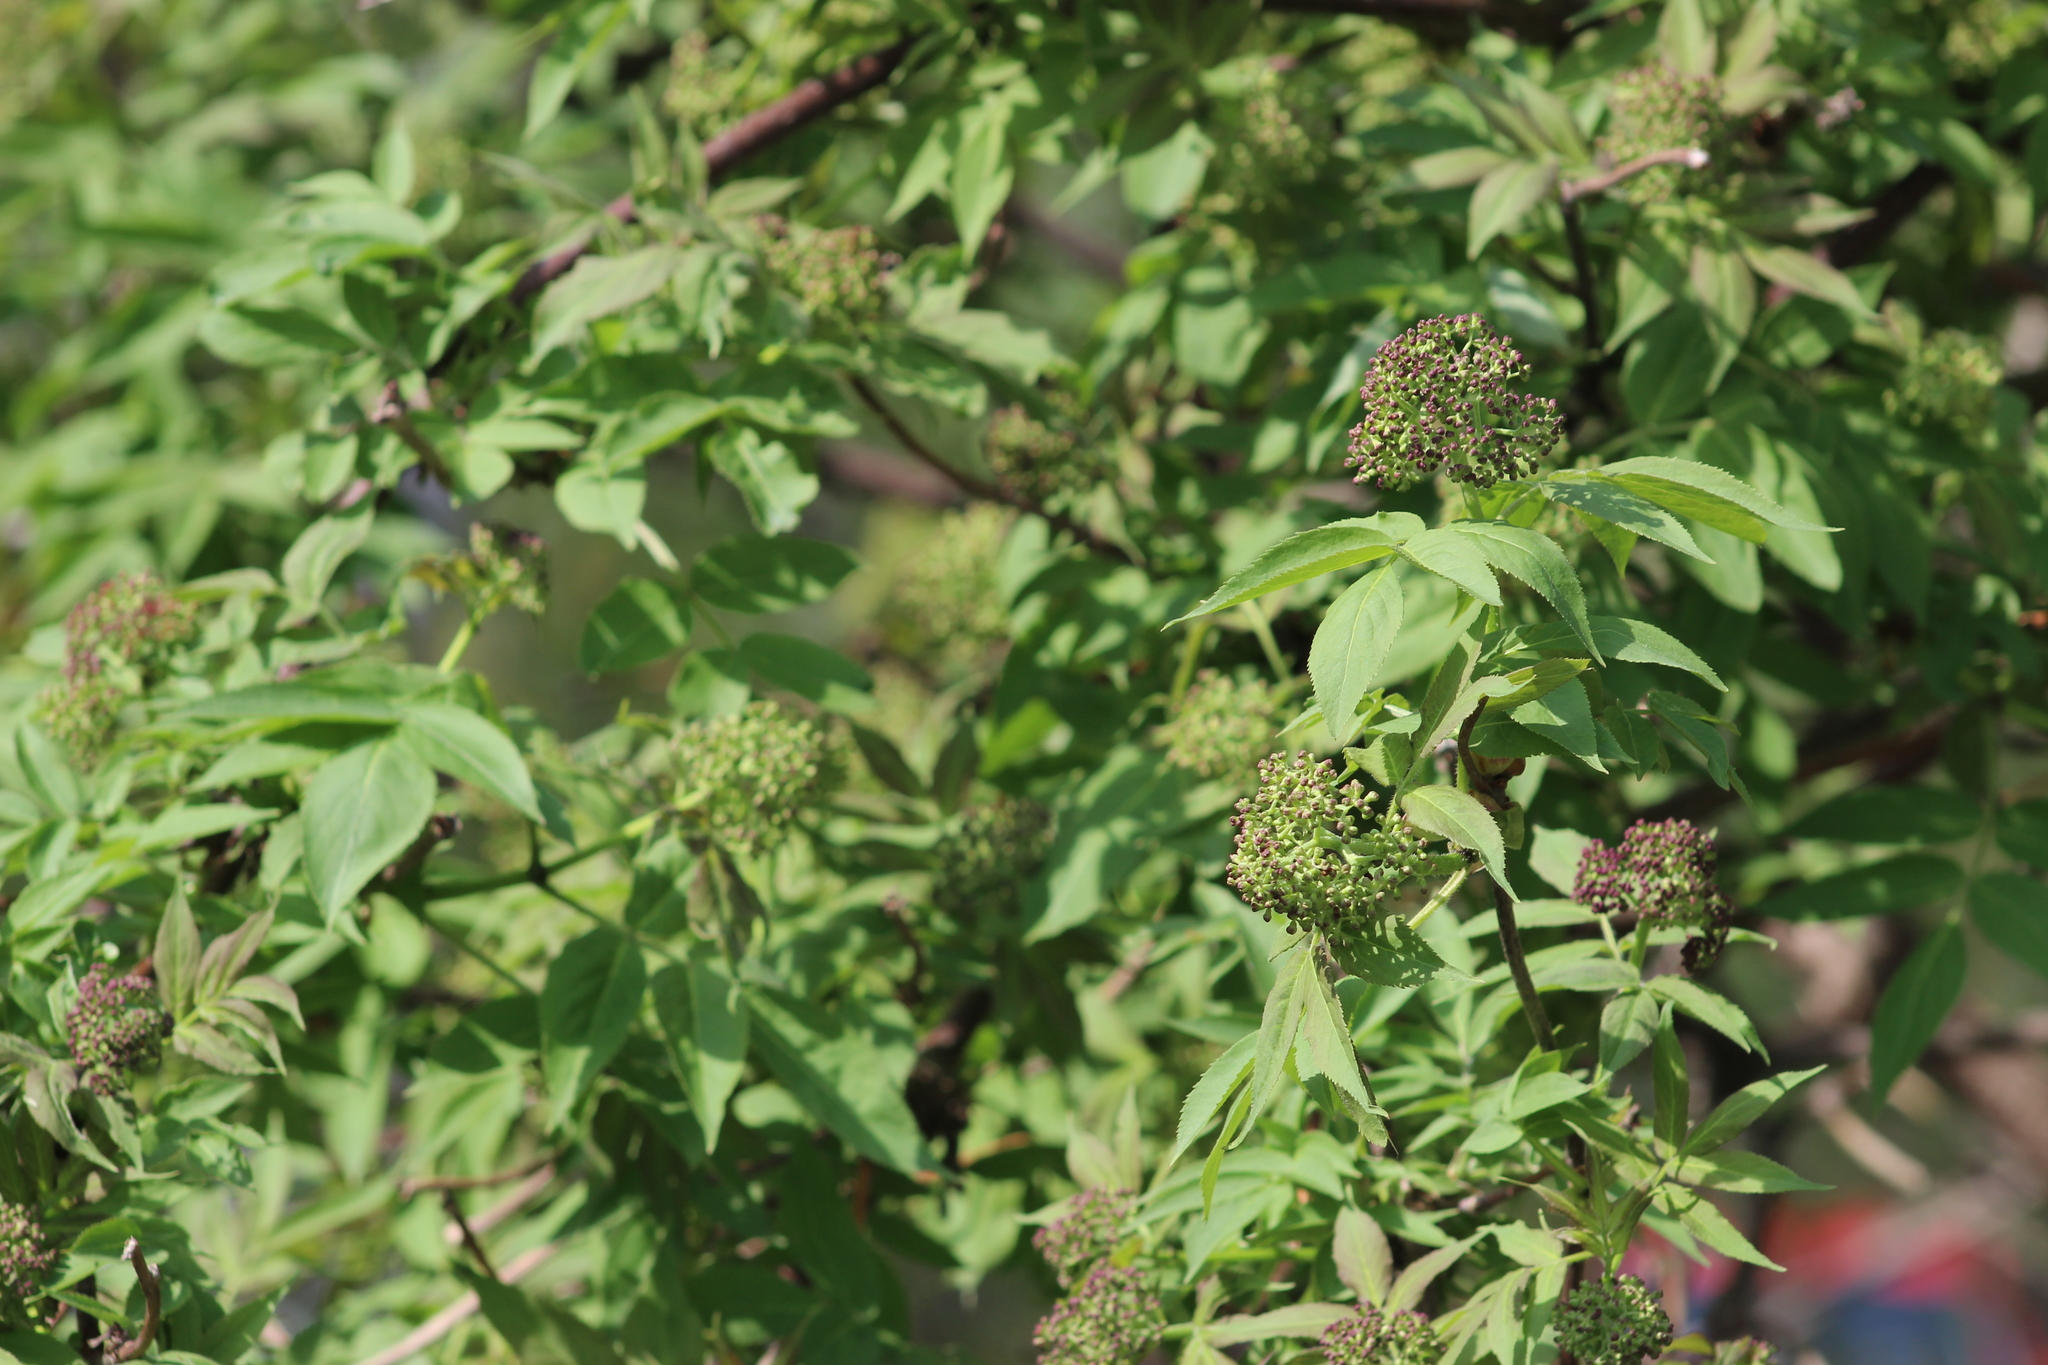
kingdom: Plantae
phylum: Tracheophyta
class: Magnoliopsida
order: Dipsacales
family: Viburnaceae
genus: Sambucus
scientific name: Sambucus sibirica
